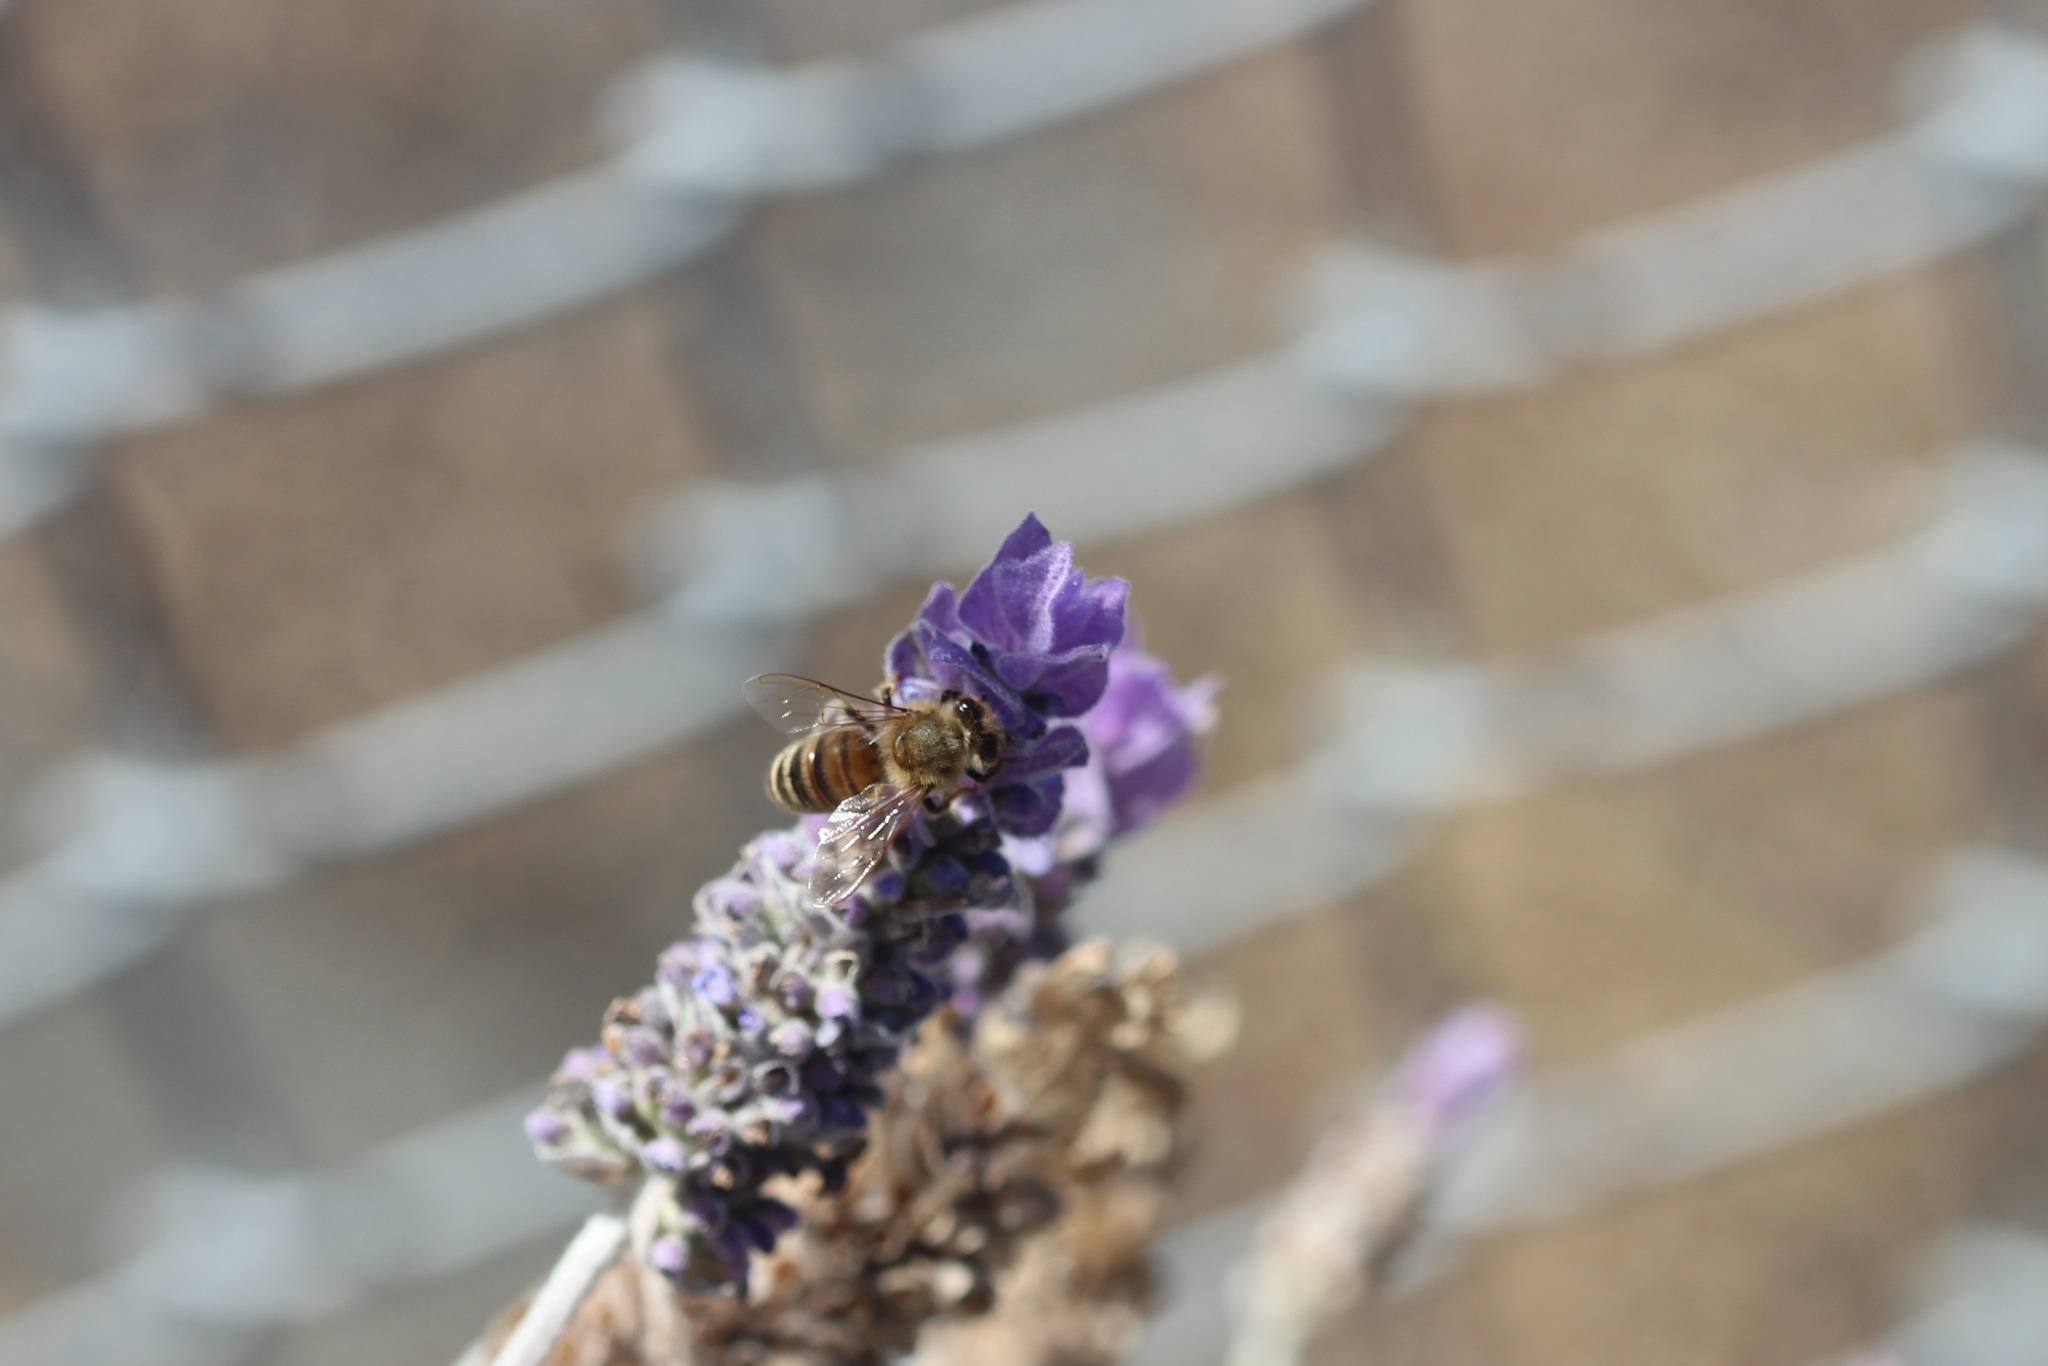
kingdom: Animalia
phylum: Arthropoda
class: Insecta
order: Hymenoptera
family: Apidae
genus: Apis
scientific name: Apis mellifera
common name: Honey bee
